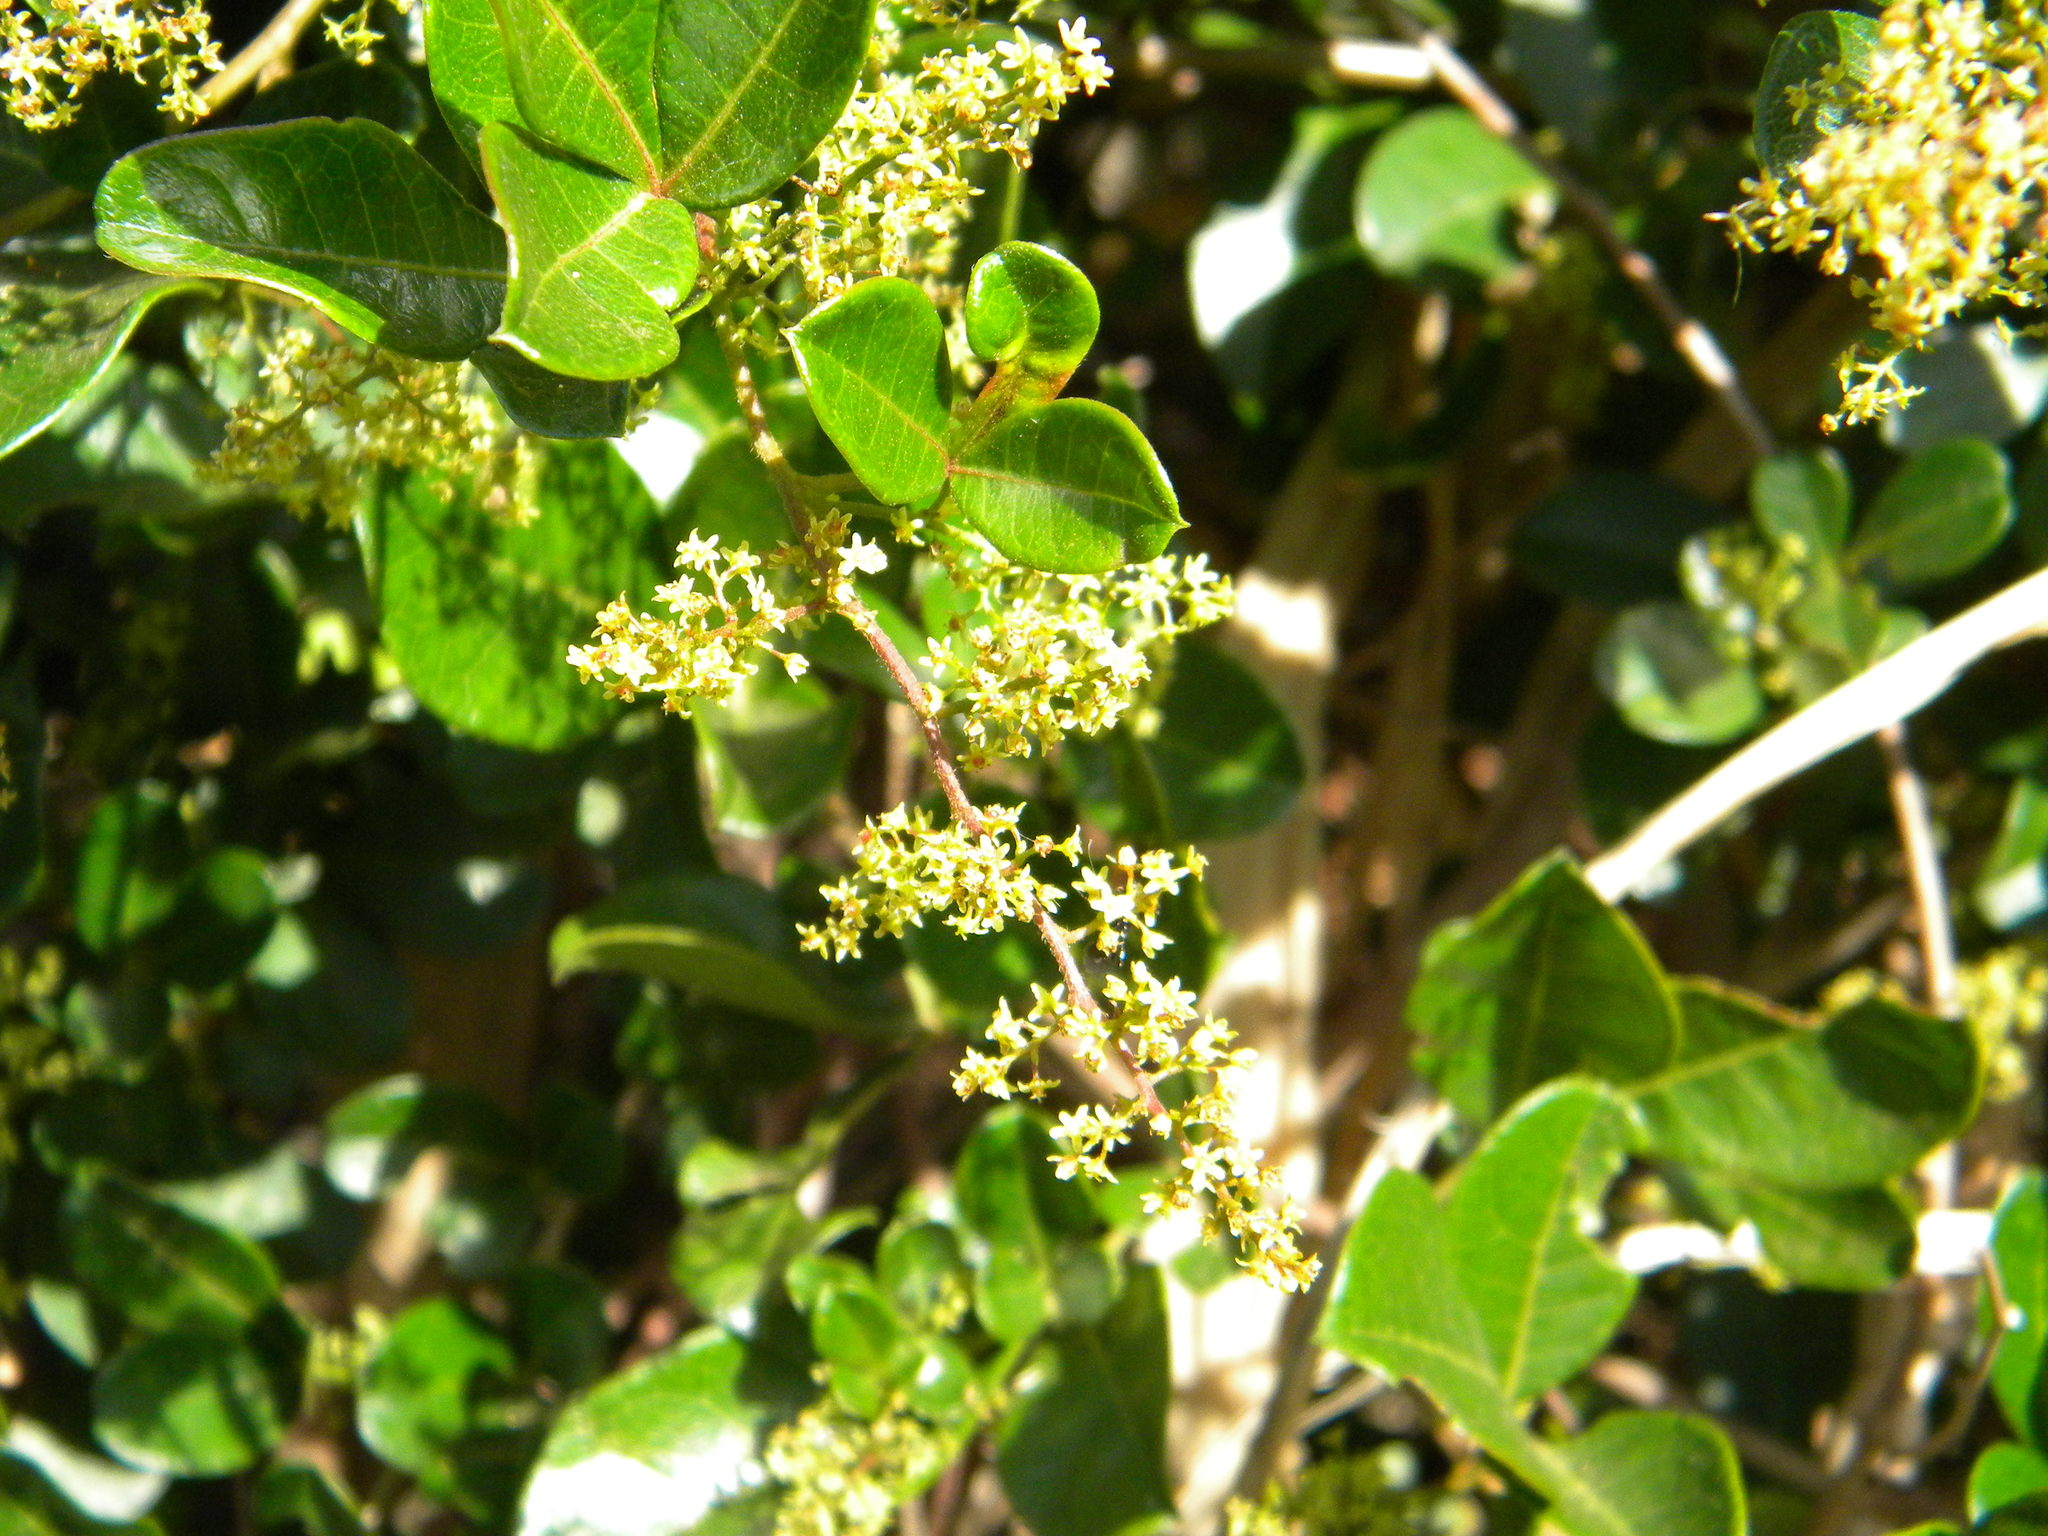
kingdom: Plantae
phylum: Tracheophyta
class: Magnoliopsida
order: Sapindales
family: Anacardiaceae
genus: Searsia
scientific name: Searsia laevigata
